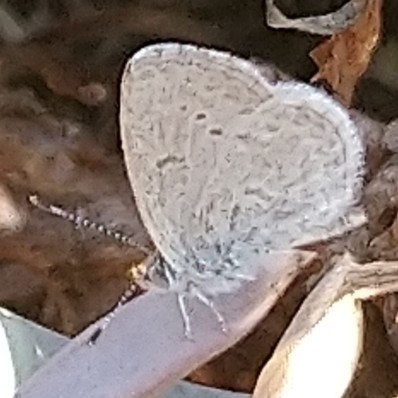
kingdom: Animalia
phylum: Arthropoda
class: Insecta
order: Lepidoptera
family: Lycaenidae
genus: Zizeeria
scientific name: Zizeeria knysna
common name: African grass blue
